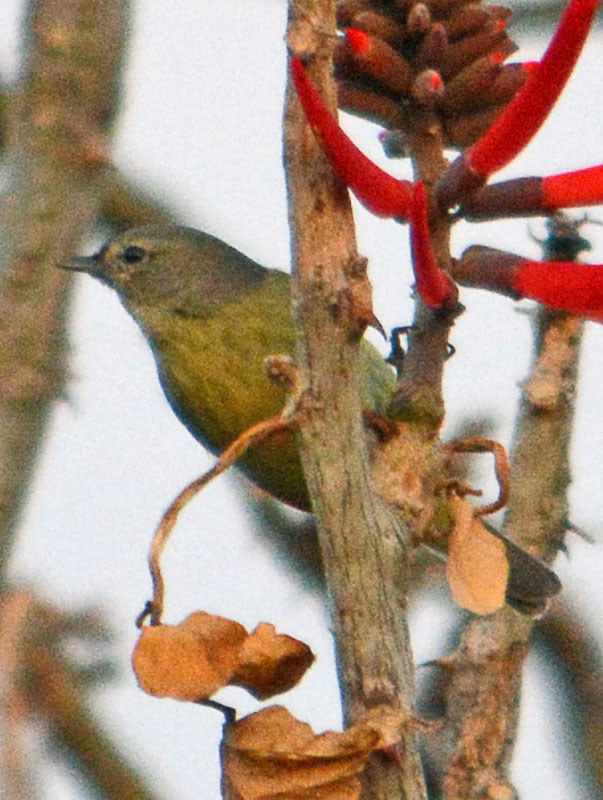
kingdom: Animalia
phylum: Chordata
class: Aves
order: Passeriformes
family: Parulidae
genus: Leiothlypis
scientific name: Leiothlypis celata
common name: Orange-crowned warbler
